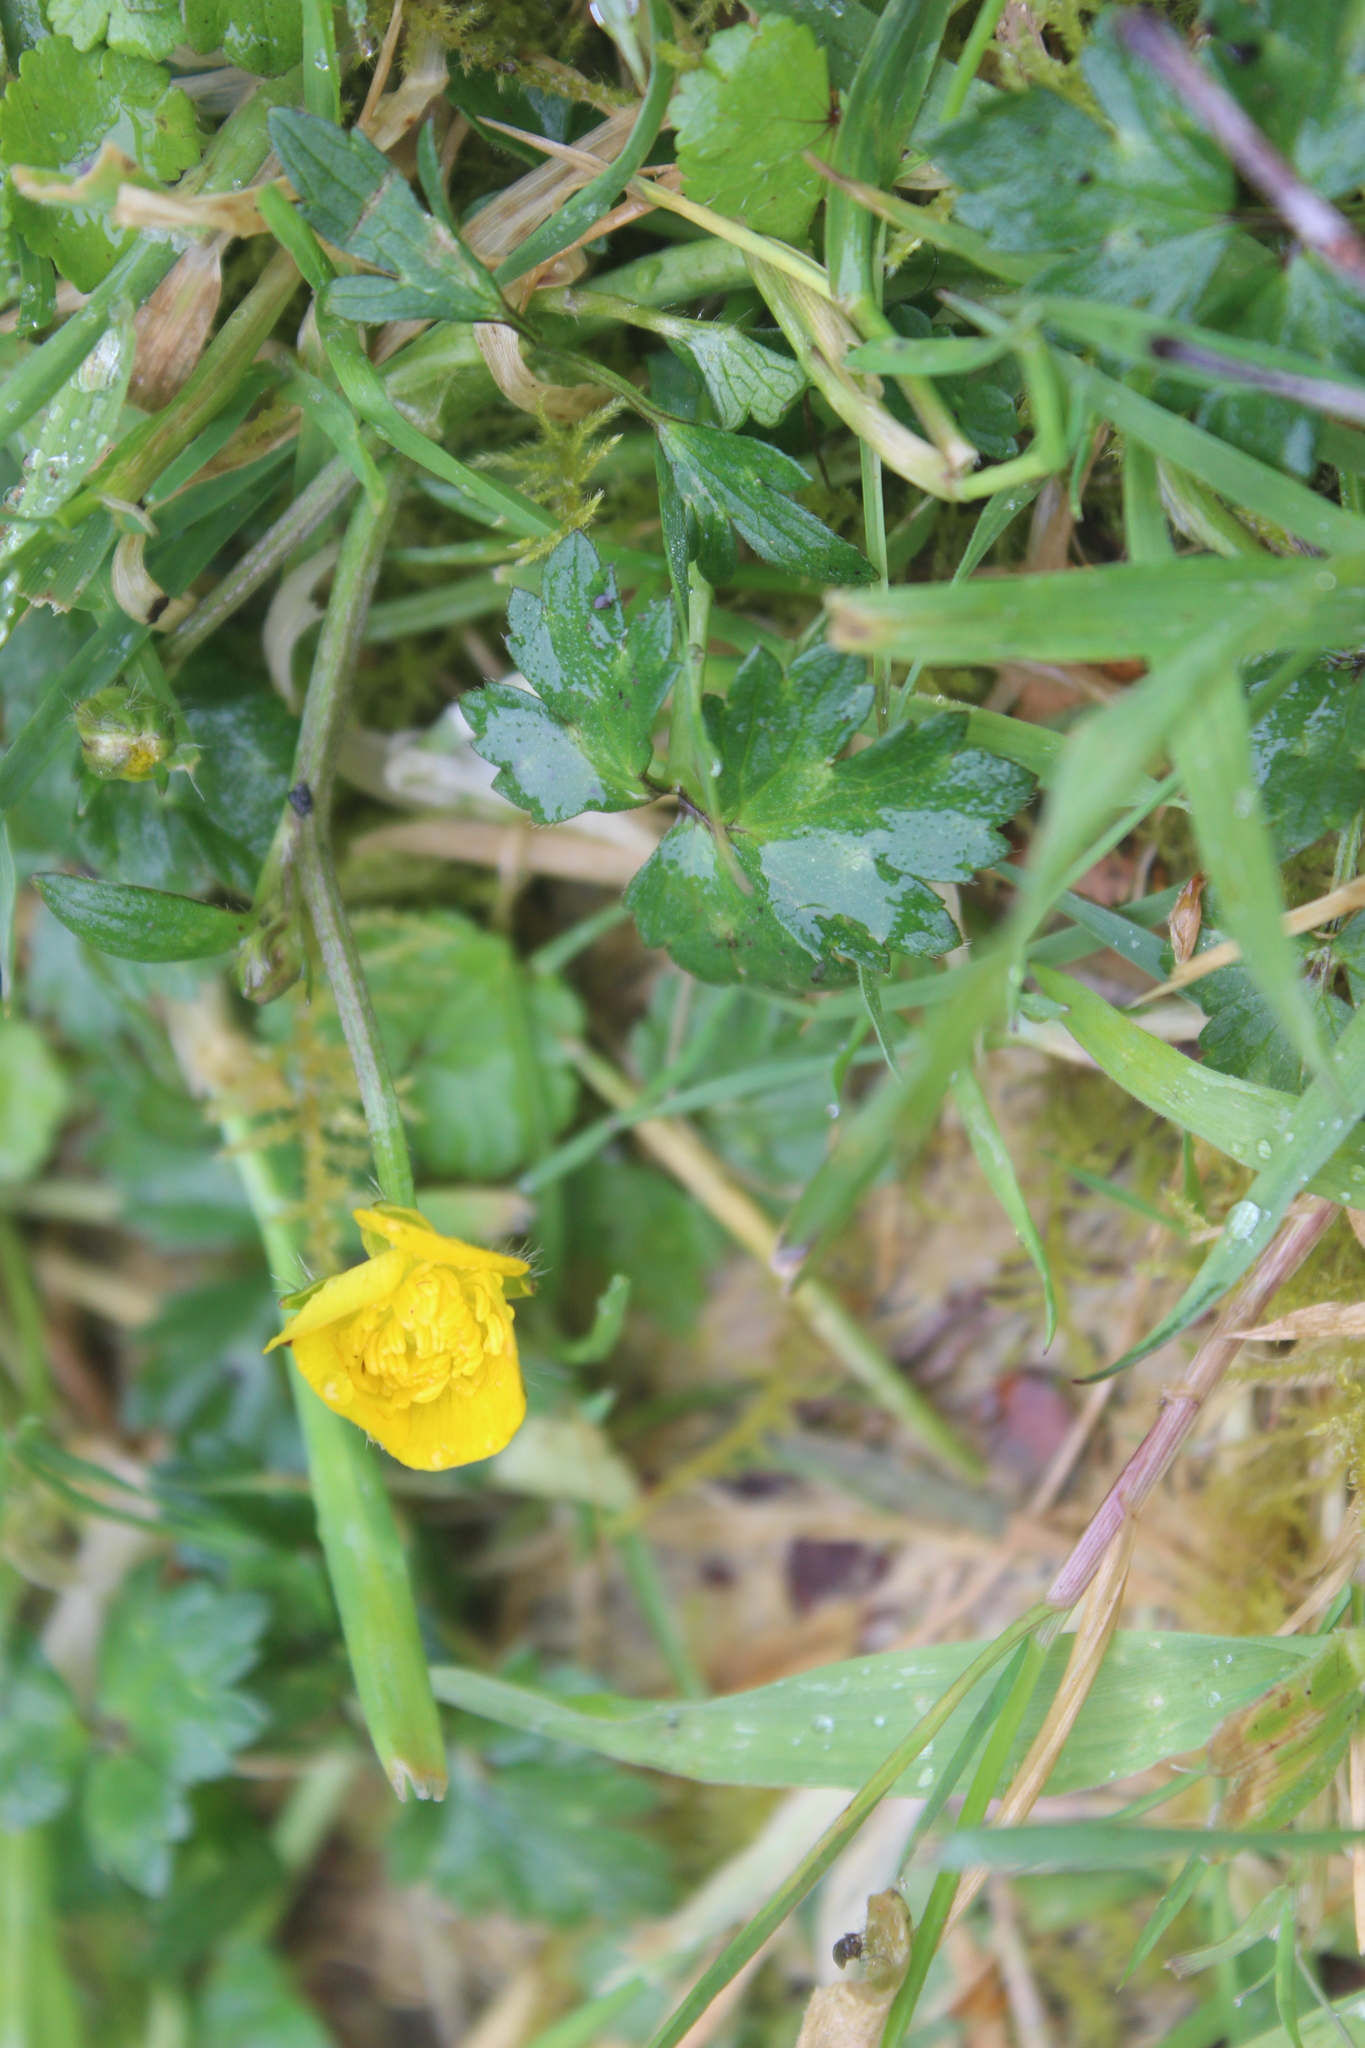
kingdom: Plantae
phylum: Tracheophyta
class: Magnoliopsida
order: Ranunculales
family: Ranunculaceae
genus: Ranunculus
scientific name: Ranunculus repens
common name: Creeping buttercup
